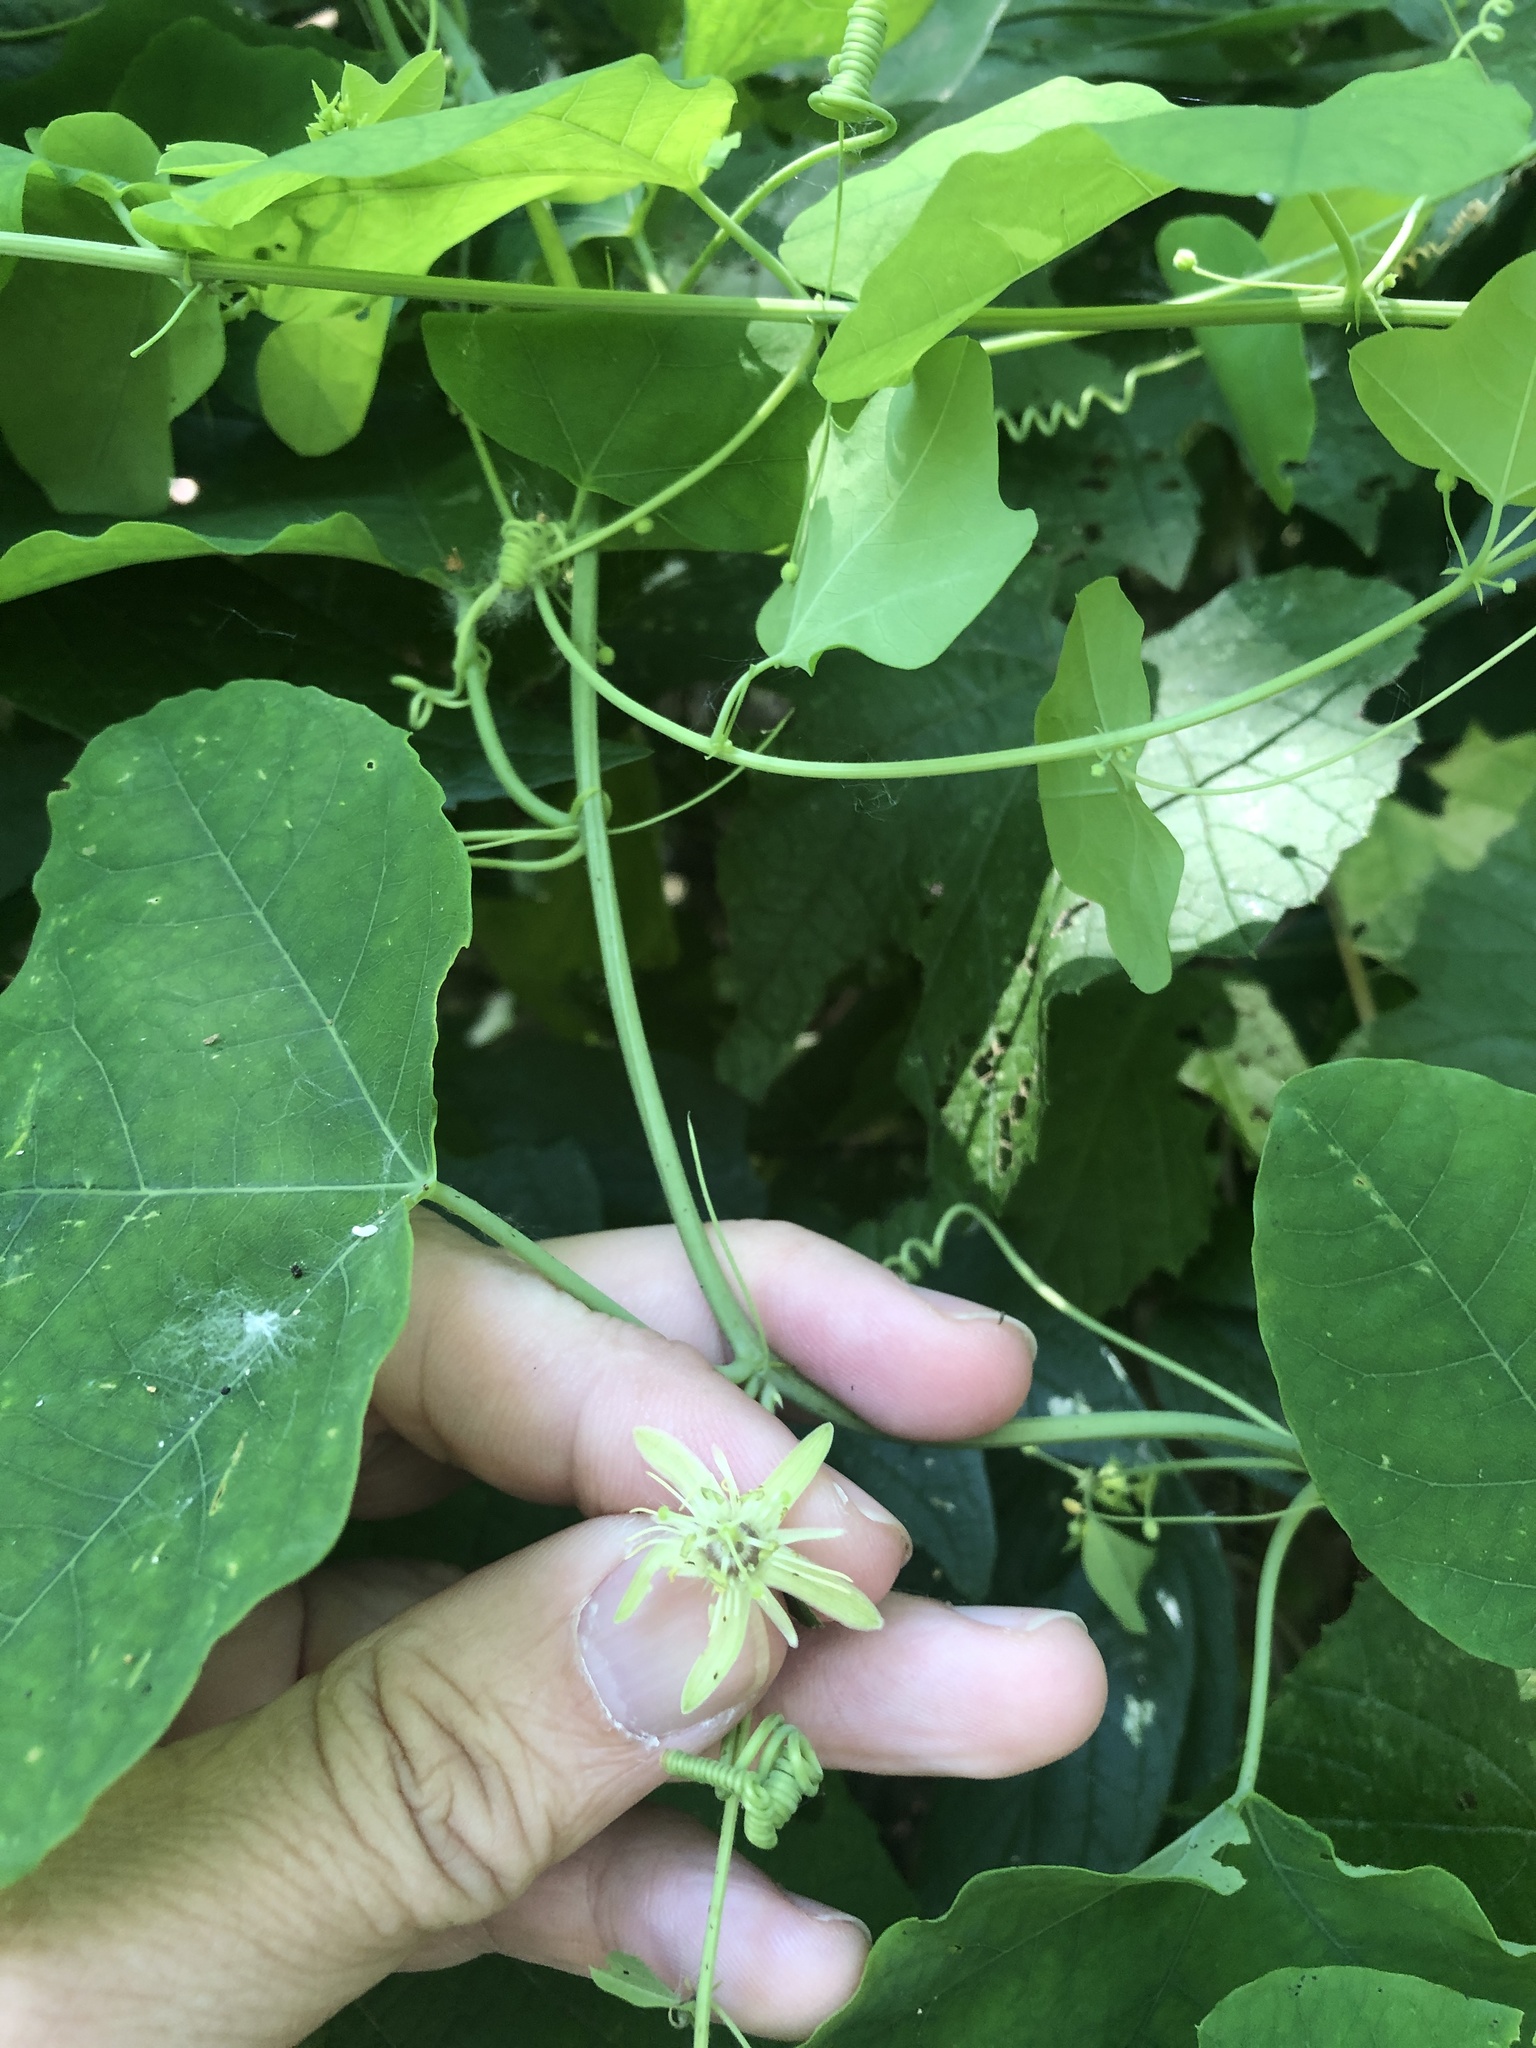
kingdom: Plantae
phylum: Tracheophyta
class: Magnoliopsida
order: Malpighiales
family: Passifloraceae
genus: Passiflora
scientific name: Passiflora lutea
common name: Yellow passionflower
